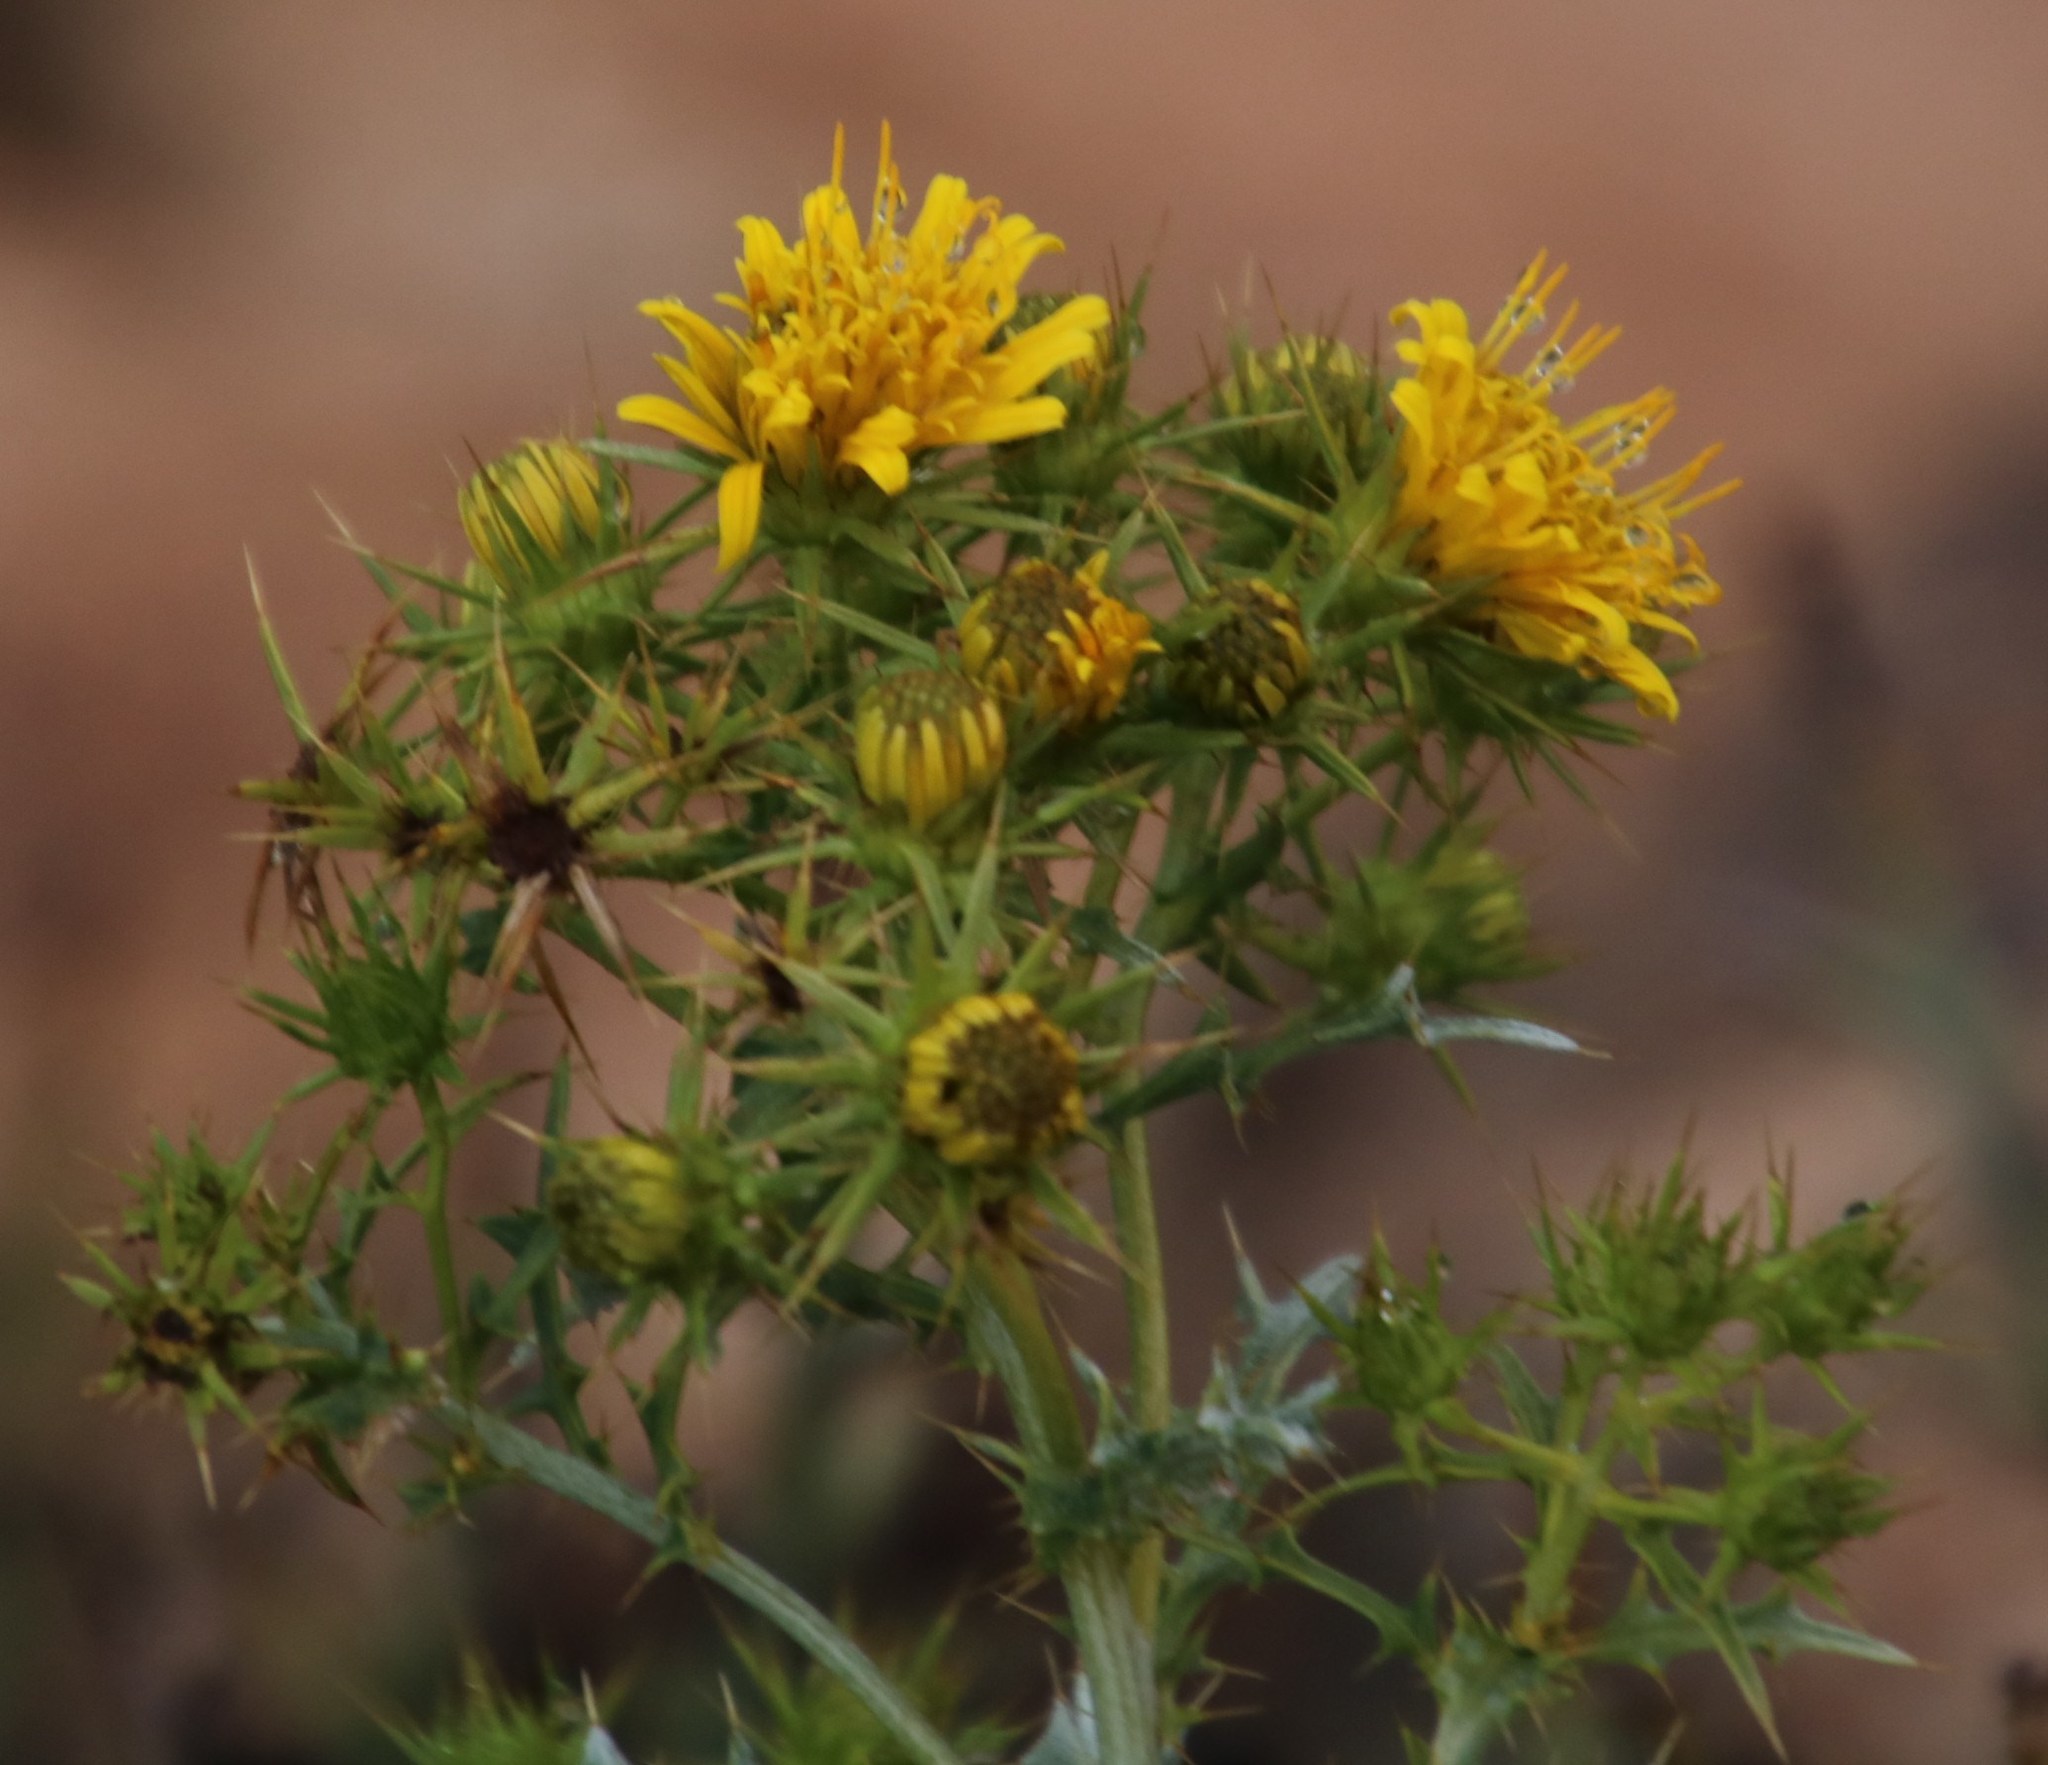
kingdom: Plantae
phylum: Tracheophyta
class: Magnoliopsida
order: Asterales
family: Asteraceae
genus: Berkheya
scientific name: Berkheya canescens
